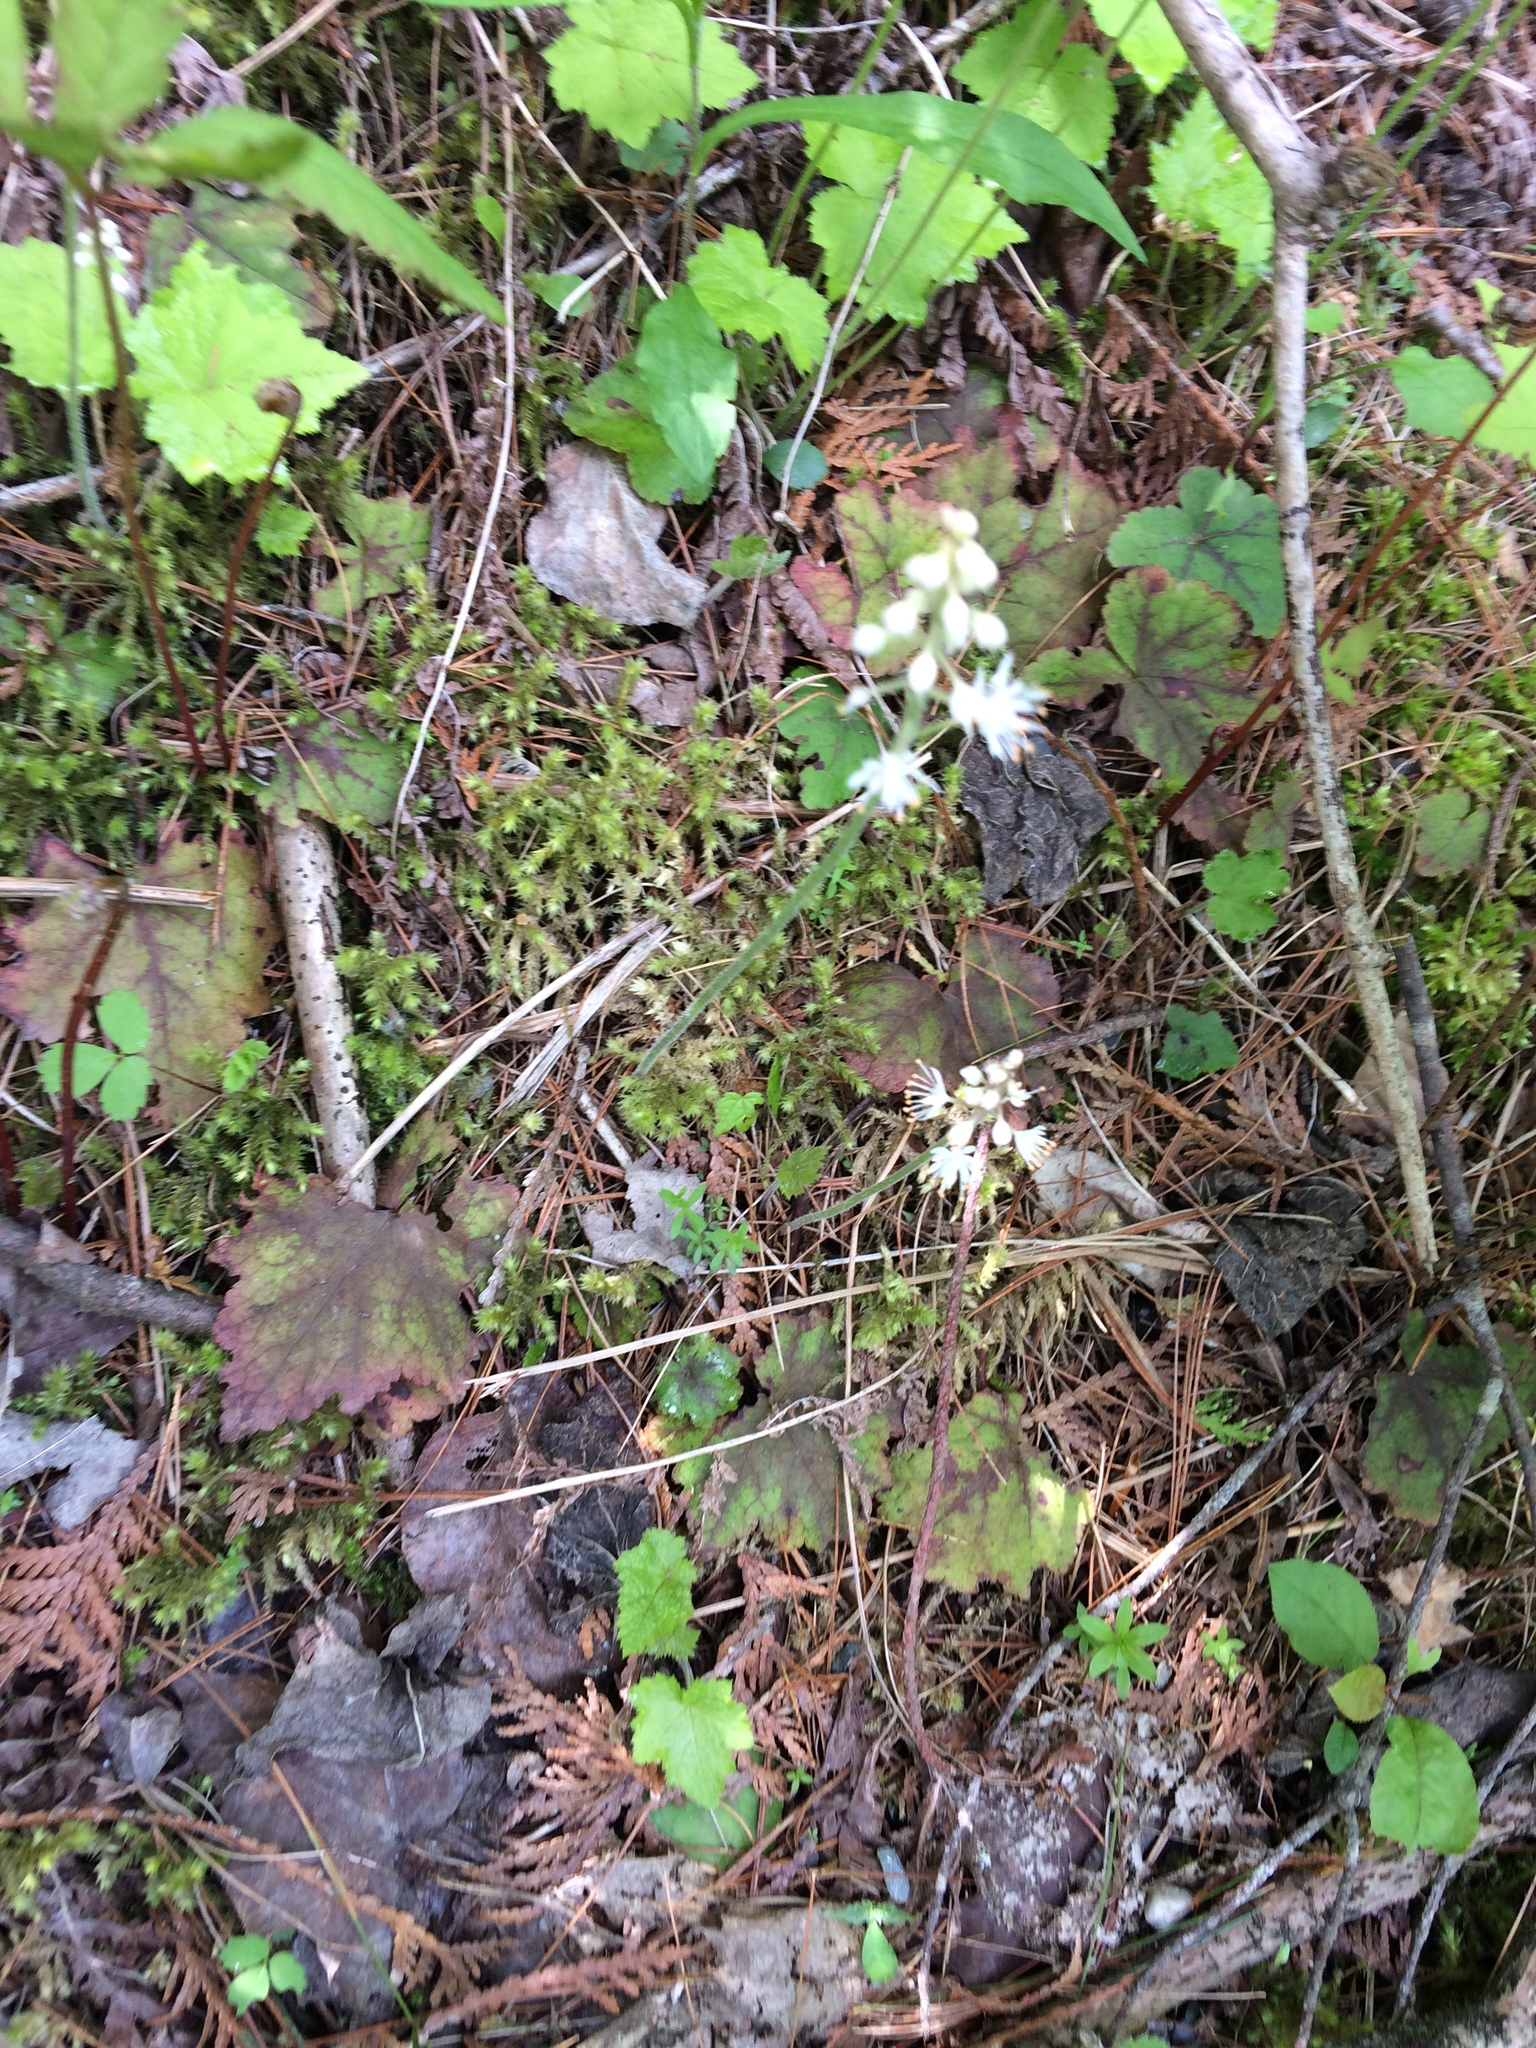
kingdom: Plantae
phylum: Tracheophyta
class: Magnoliopsida
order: Saxifragales
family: Saxifragaceae
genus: Tiarella
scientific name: Tiarella stolonifera
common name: Stoloniferous foamflower
